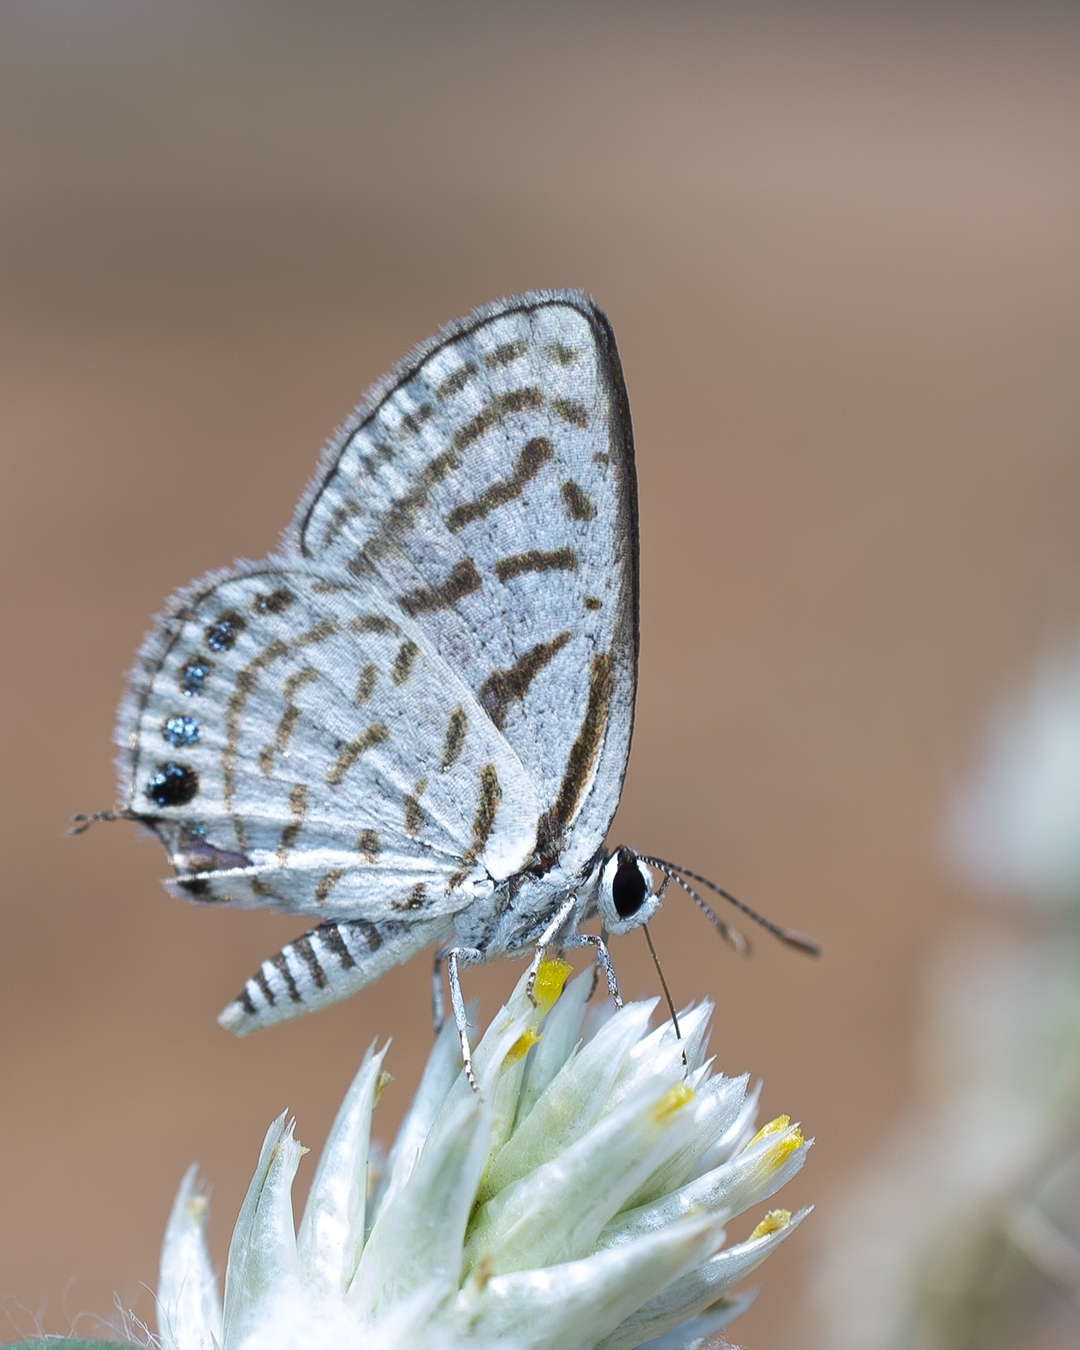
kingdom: Animalia
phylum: Arthropoda
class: Insecta
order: Lepidoptera
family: Lycaenidae
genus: Tarucus
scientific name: Tarucus nara
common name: Striped pierrot
